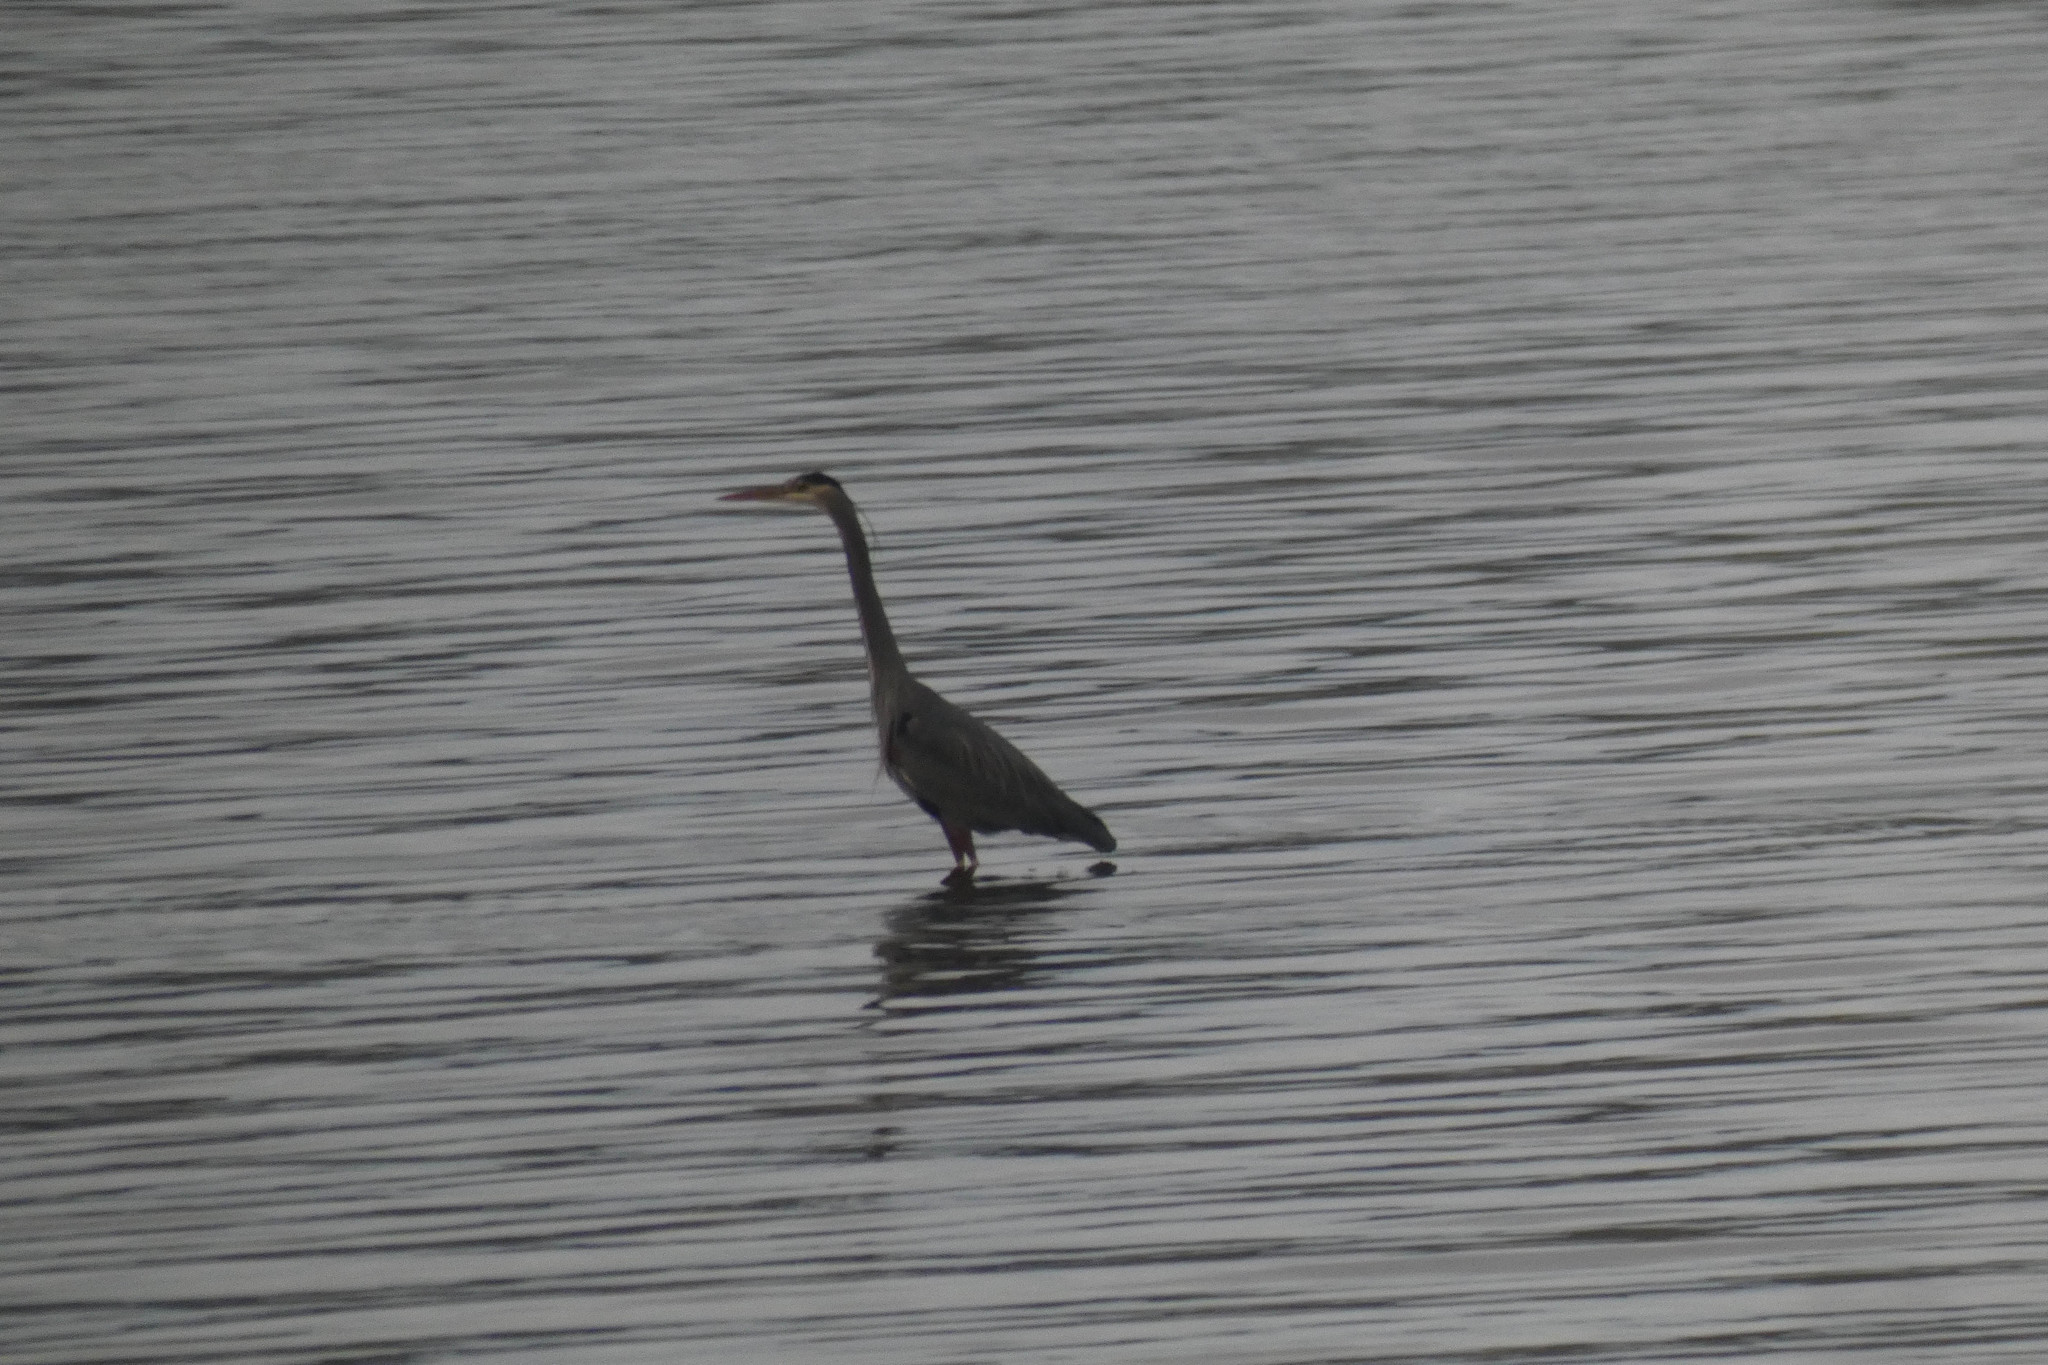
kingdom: Animalia
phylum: Chordata
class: Aves
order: Pelecaniformes
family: Ardeidae
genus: Ardea
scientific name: Ardea herodias
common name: Great blue heron
